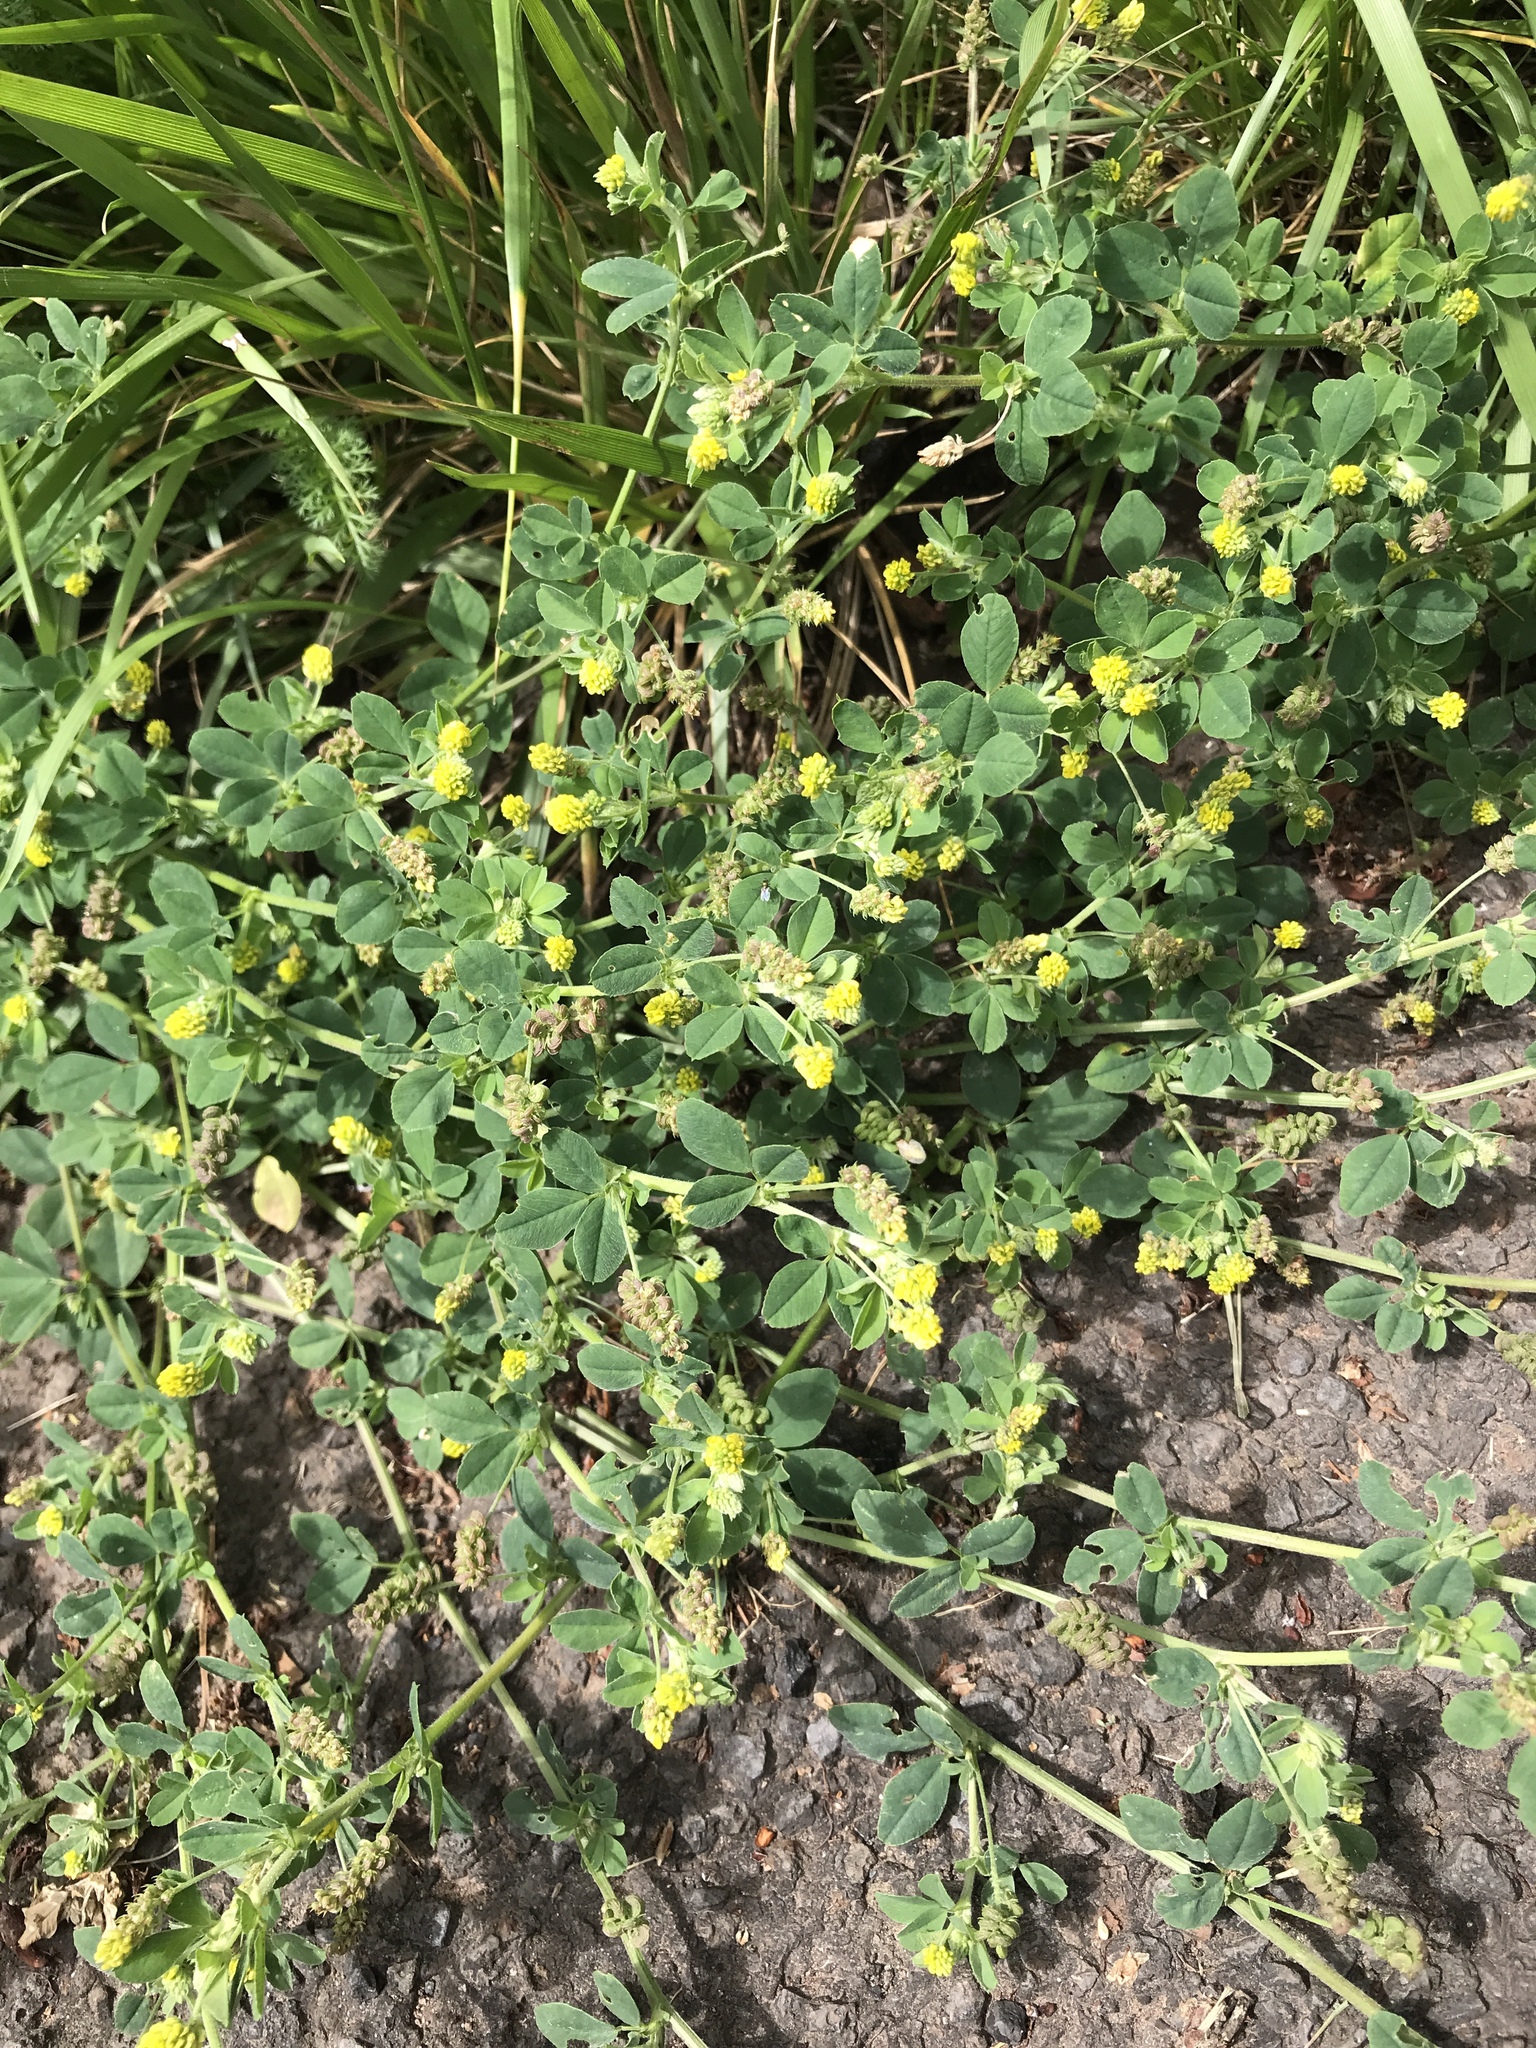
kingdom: Plantae
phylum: Tracheophyta
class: Magnoliopsida
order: Fabales
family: Fabaceae
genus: Medicago
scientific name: Medicago lupulina
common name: Black medick
